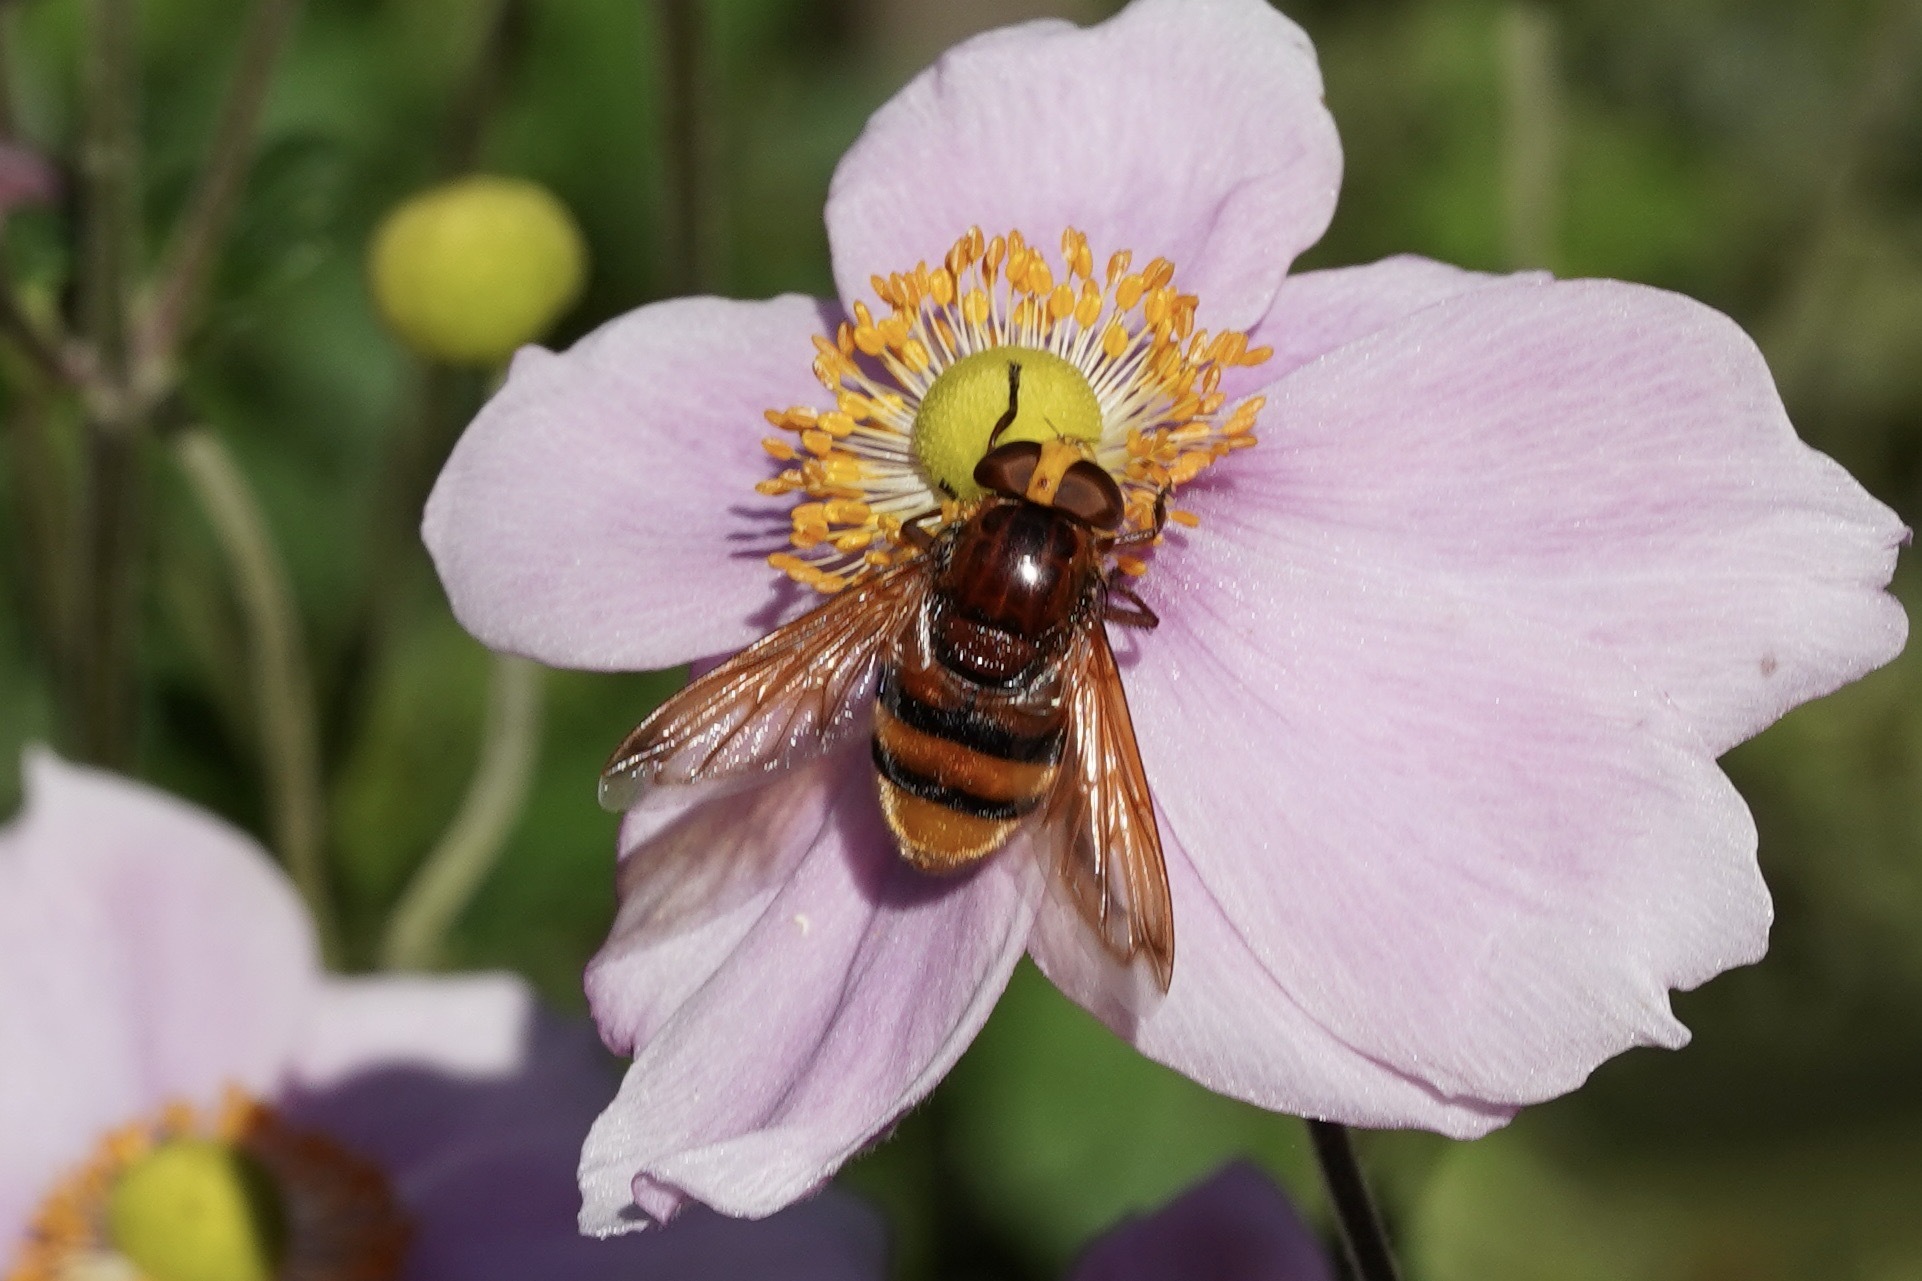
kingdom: Animalia
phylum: Arthropoda
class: Insecta
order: Diptera
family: Syrphidae
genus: Volucella
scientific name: Volucella zonaria
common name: Hornet hoverfly
